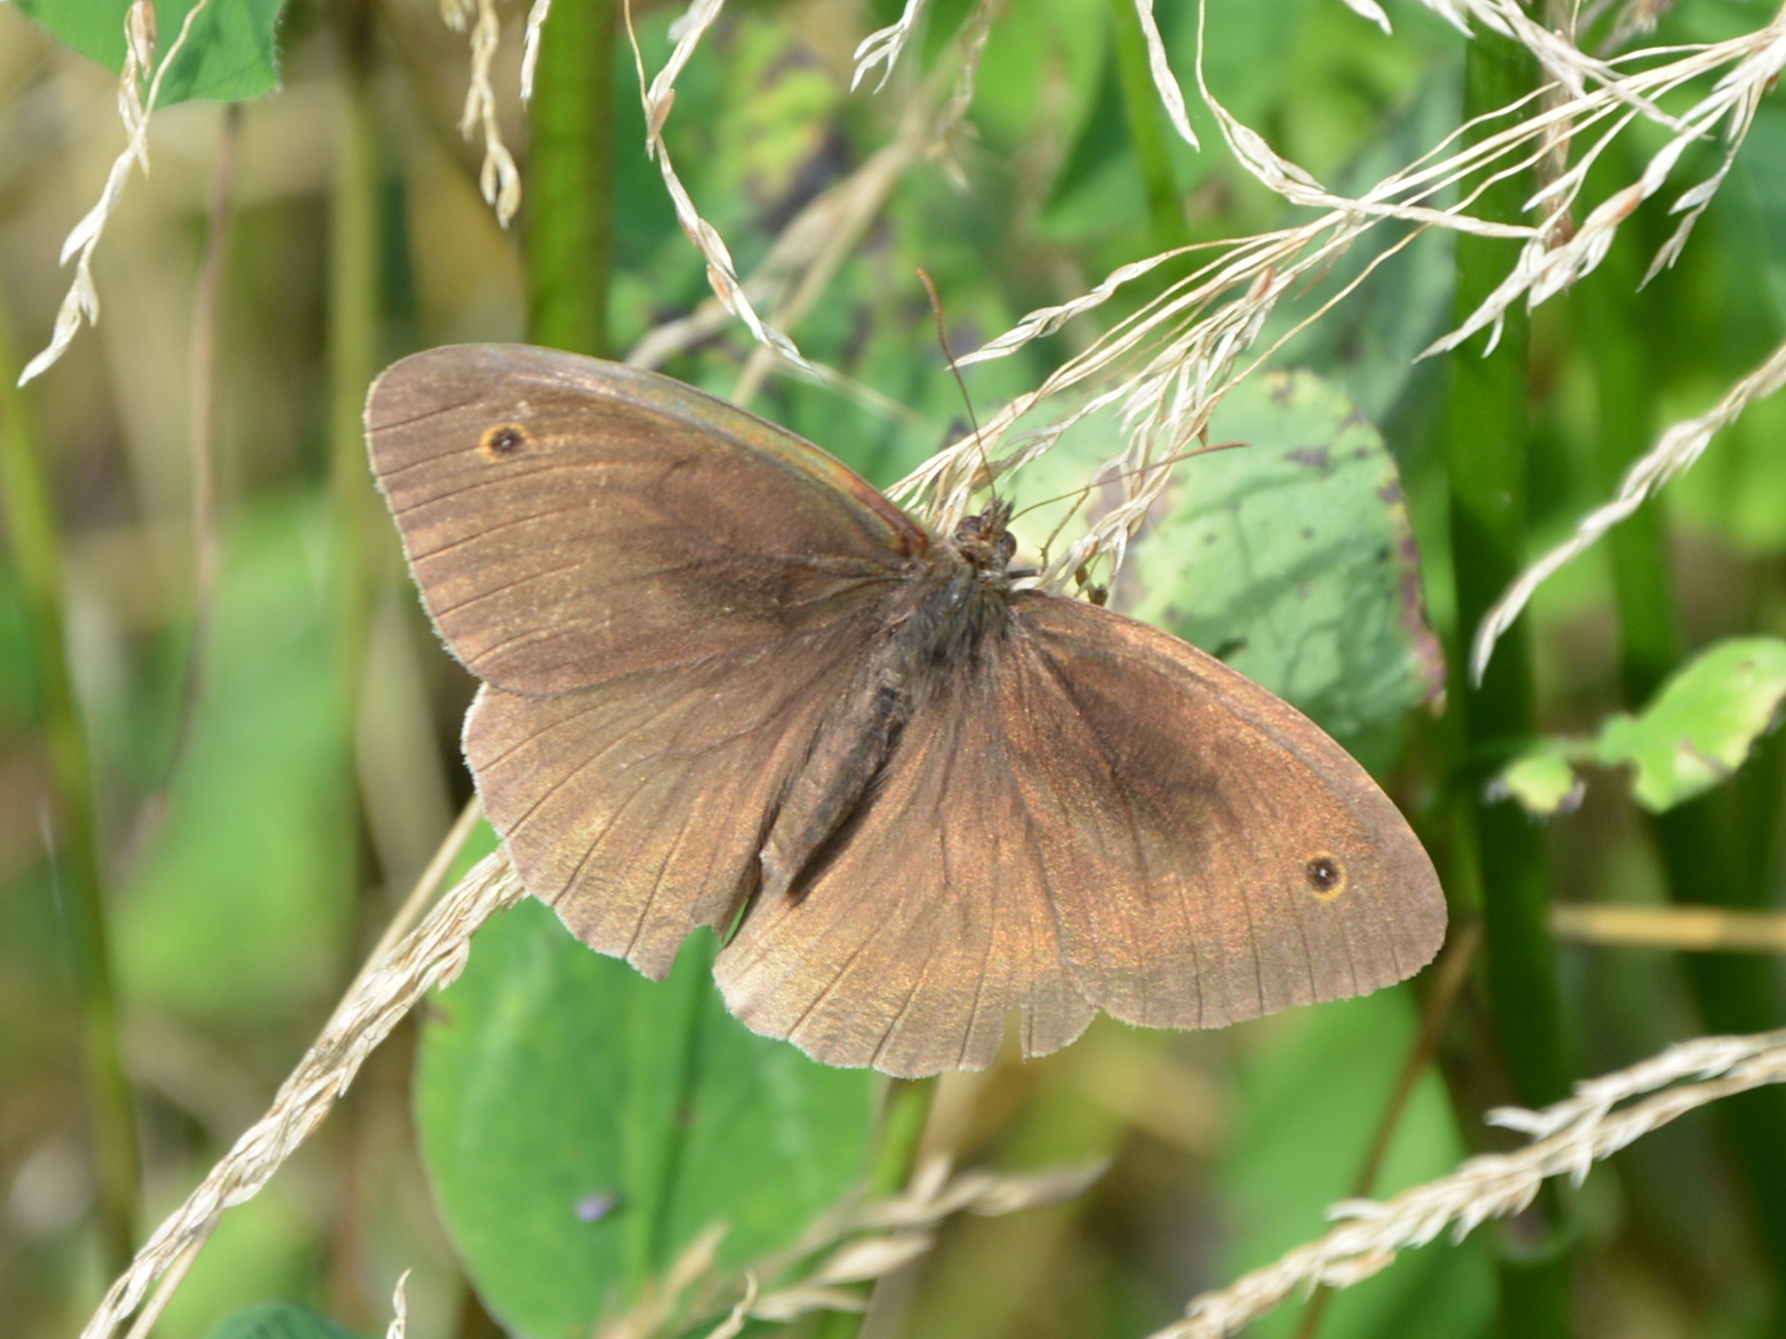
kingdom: Animalia
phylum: Arthropoda
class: Insecta
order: Lepidoptera
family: Nymphalidae
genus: Maniola
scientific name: Maniola jurtina
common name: Meadow brown
